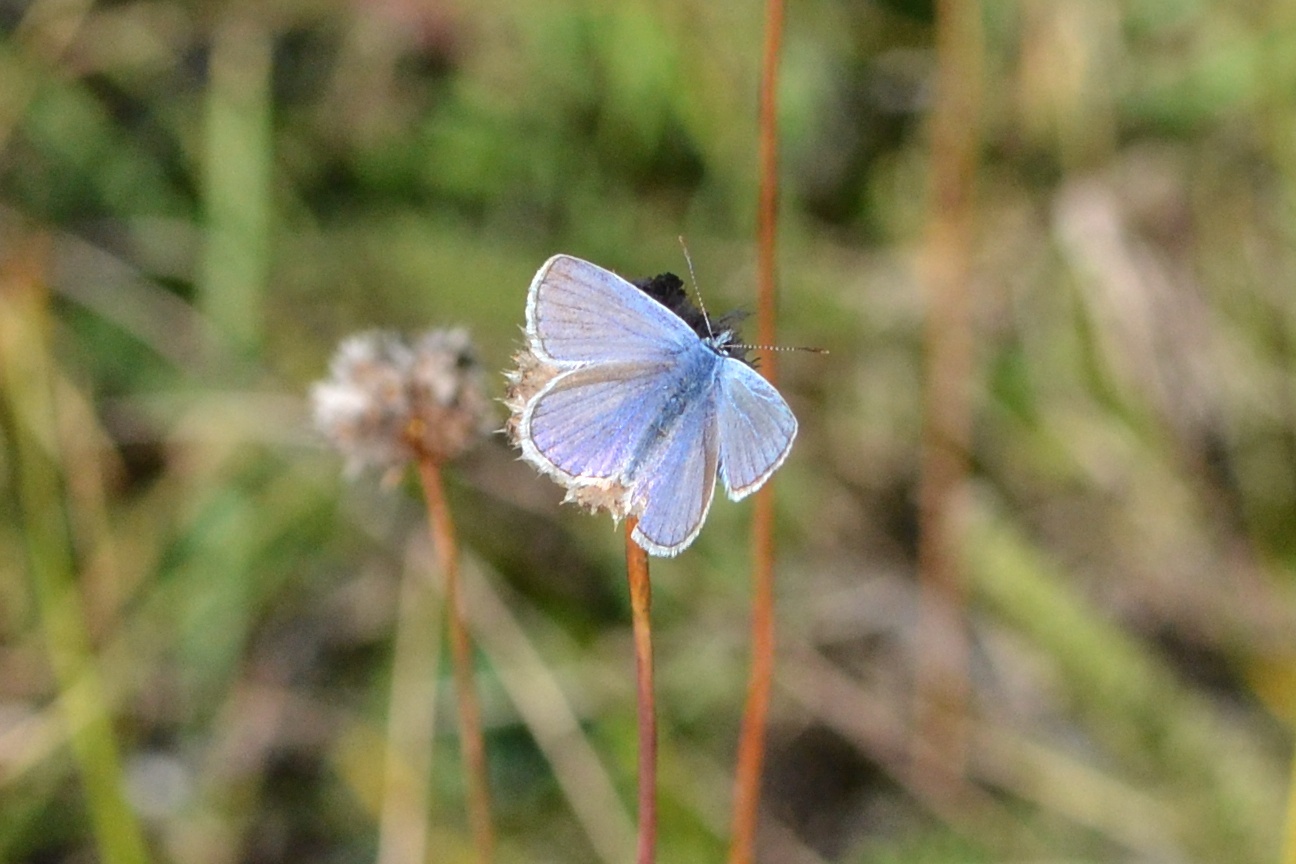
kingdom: Animalia
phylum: Arthropoda
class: Insecta
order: Lepidoptera
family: Lycaenidae
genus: Polyommatus
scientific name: Polyommatus icarus
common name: Common blue
